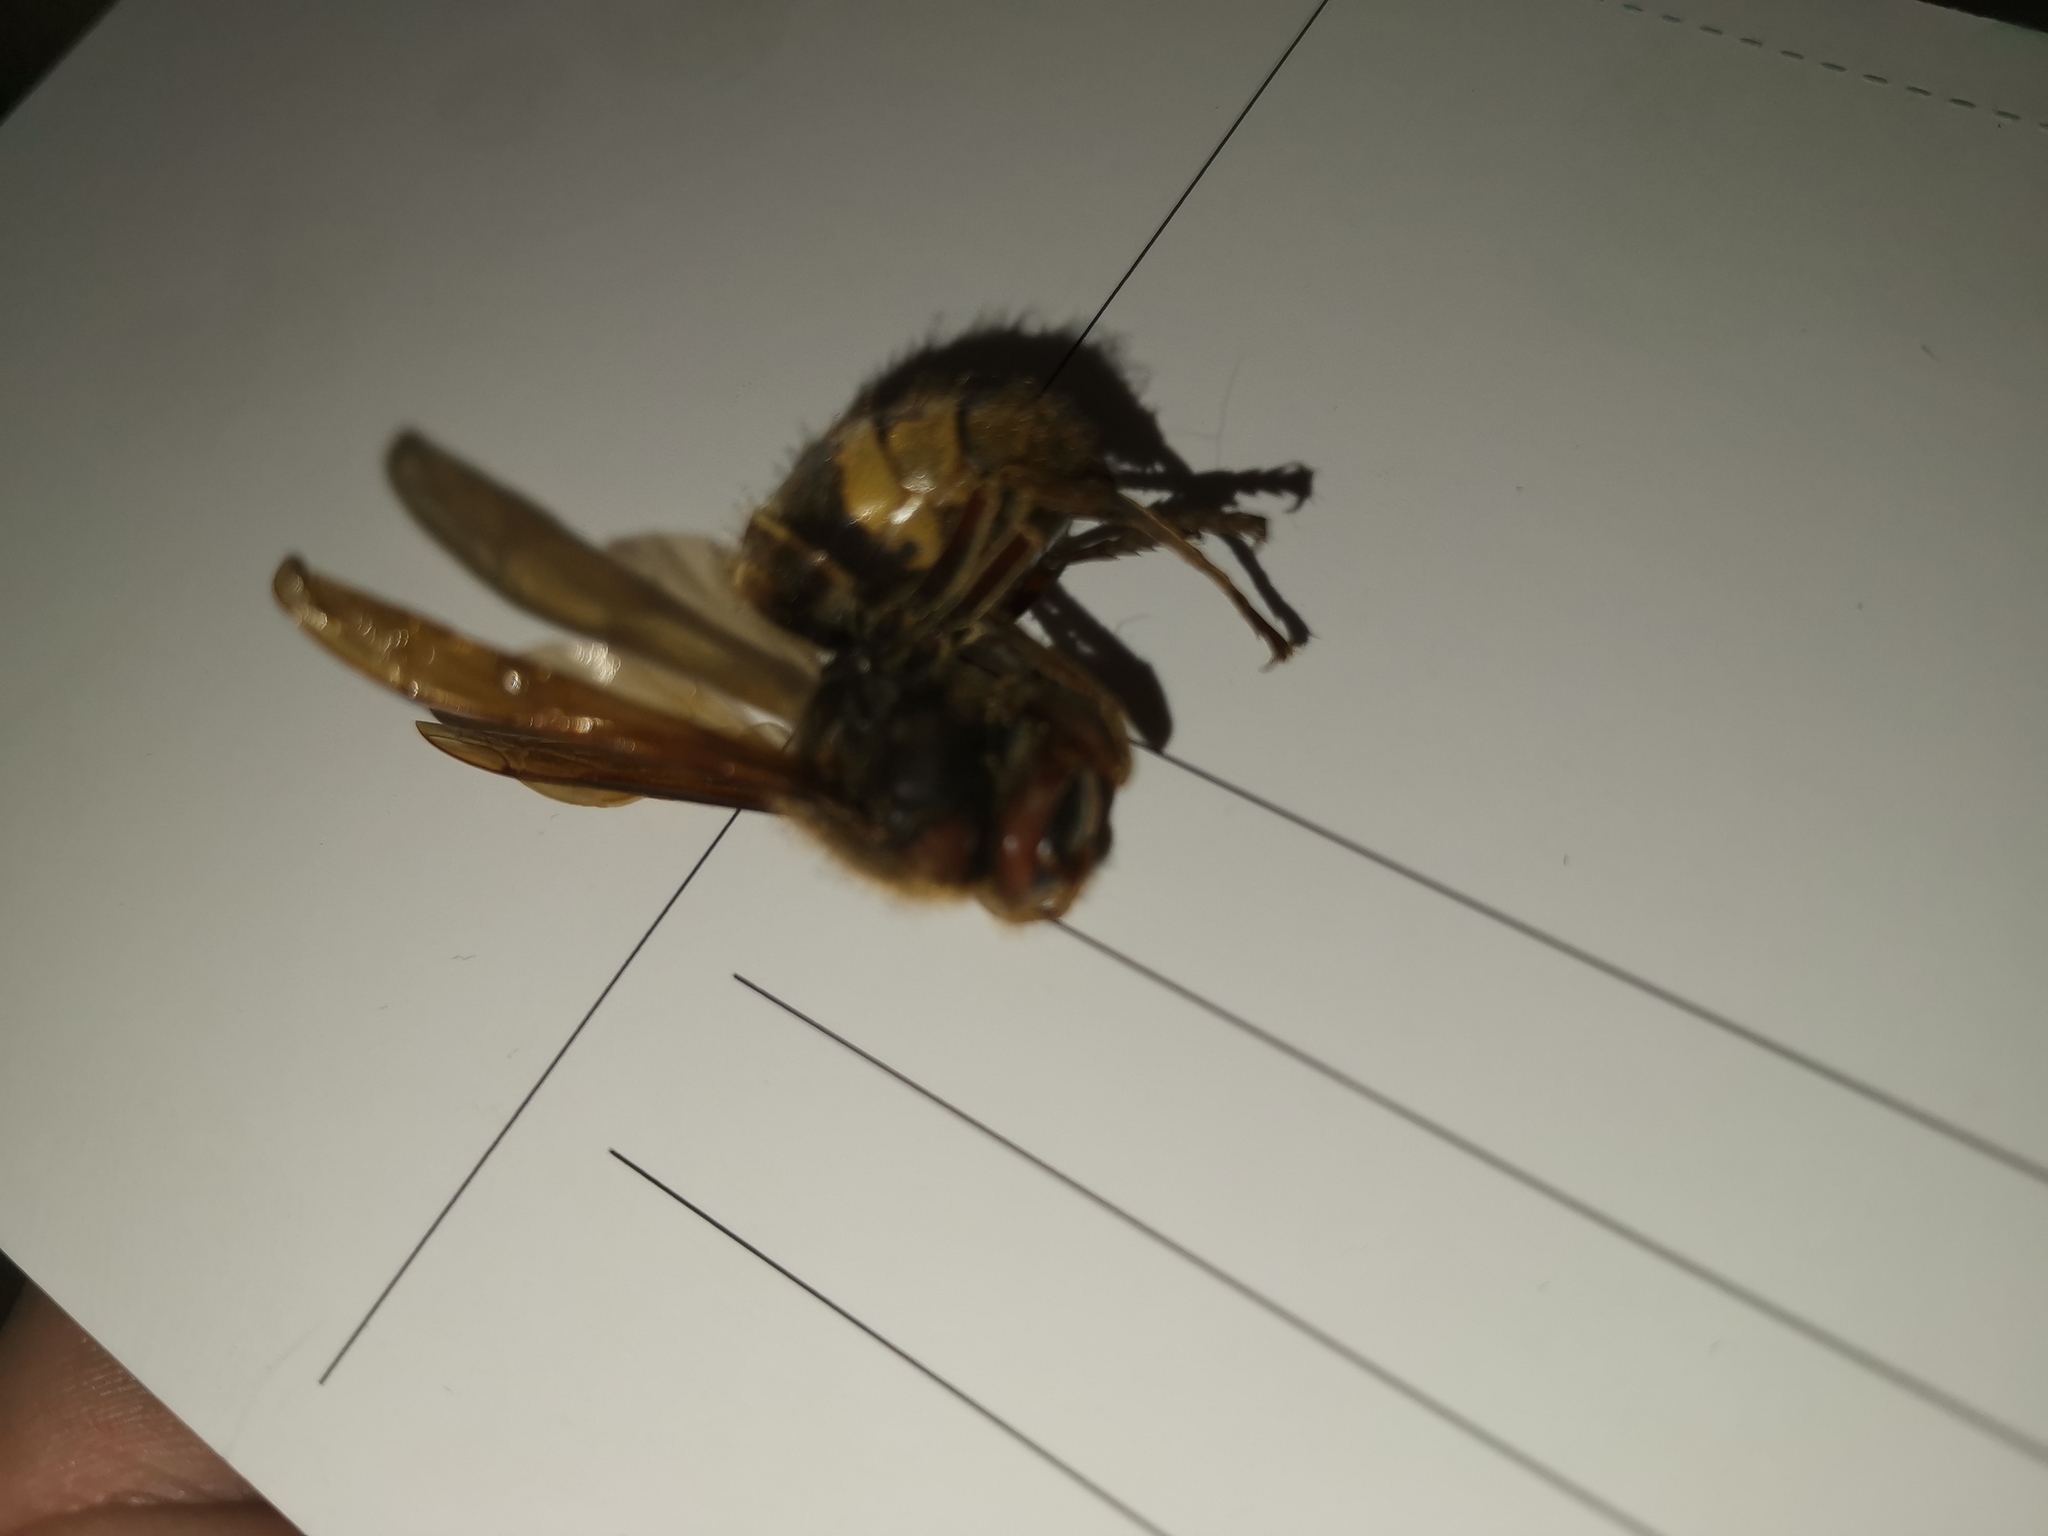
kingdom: Animalia
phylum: Arthropoda
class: Insecta
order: Hymenoptera
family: Vespidae
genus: Vespa
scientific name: Vespa crabro
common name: Hornet
